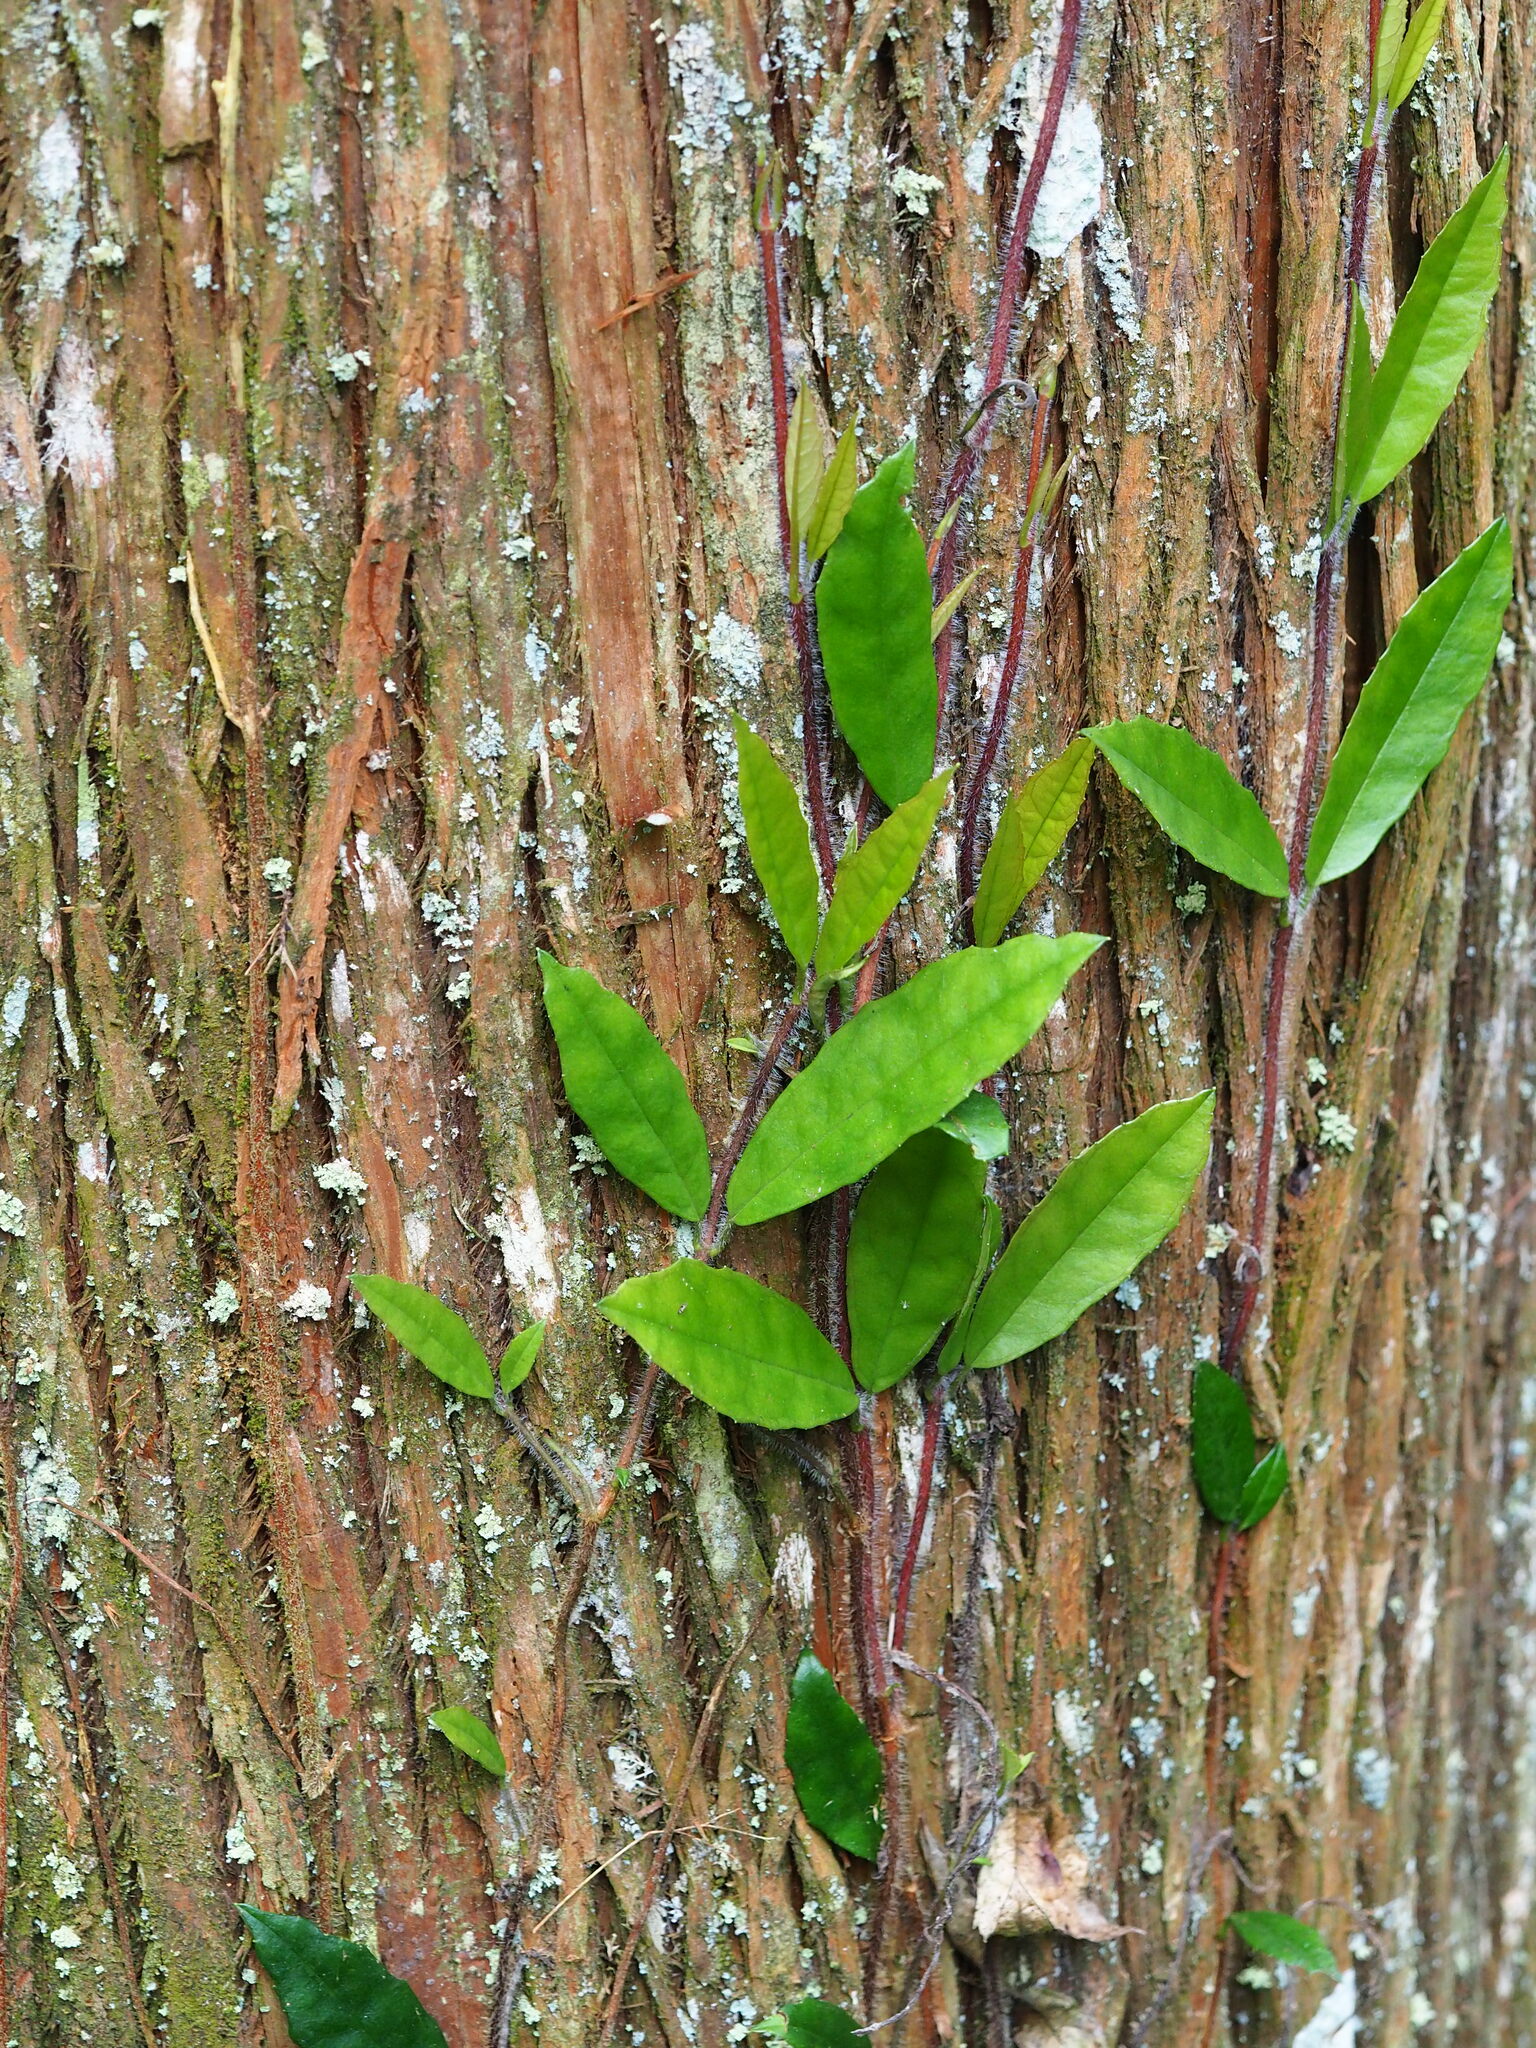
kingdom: Plantae
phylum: Tracheophyta
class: Magnoliopsida
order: Cornales
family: Hydrangeaceae
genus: Hydrangea
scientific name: Hydrangea viburnoides
